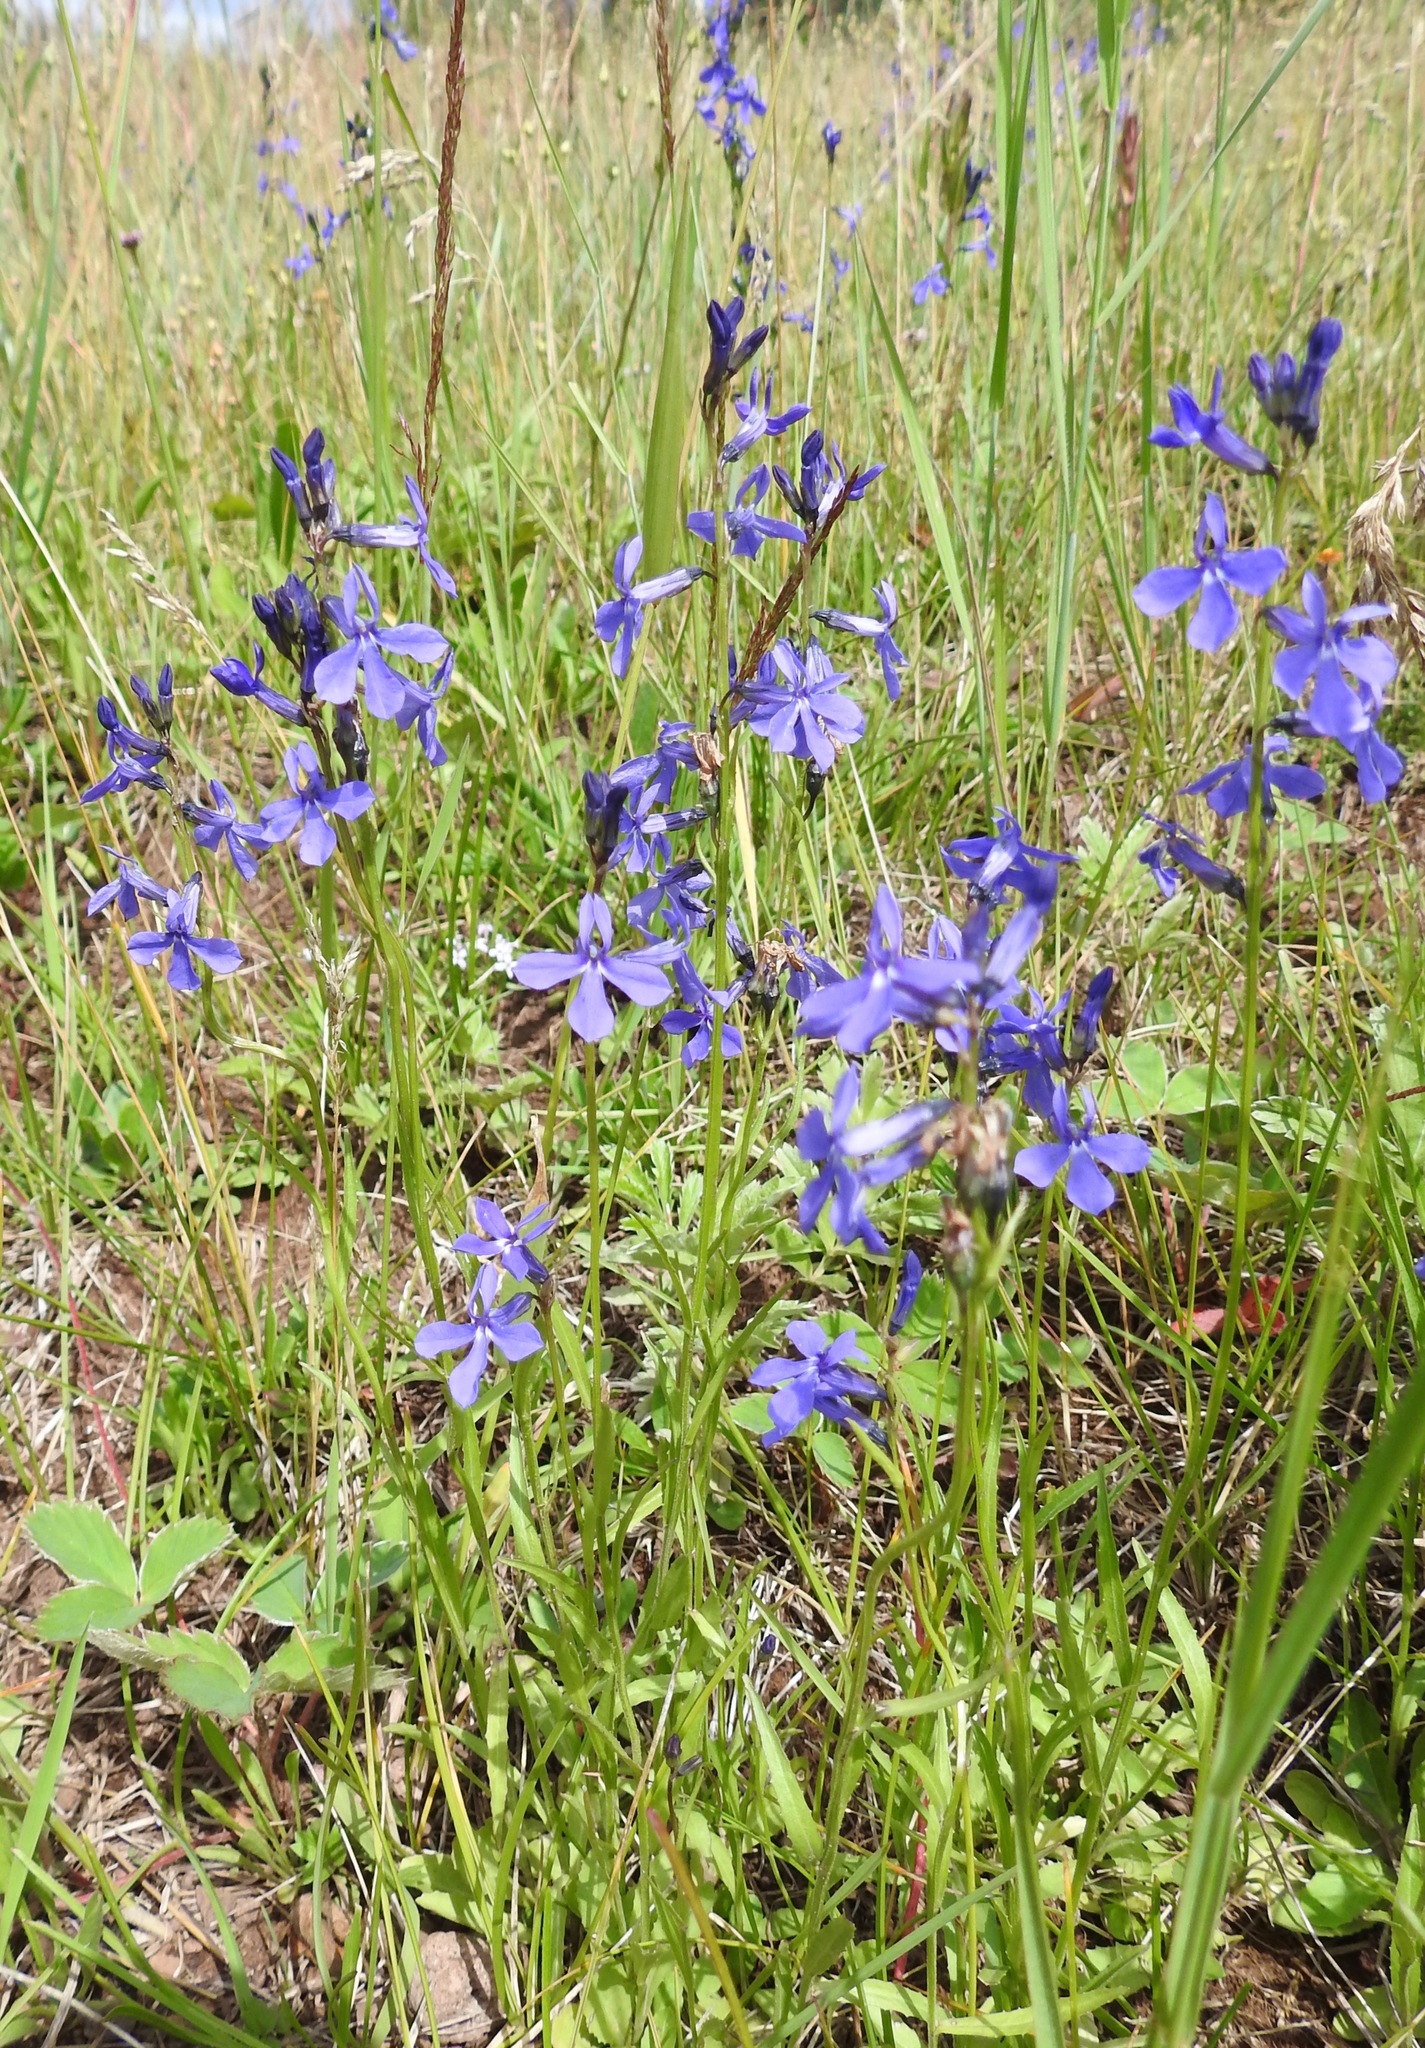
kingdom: Plantae
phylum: Tracheophyta
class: Magnoliopsida
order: Asterales
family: Campanulaceae
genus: Lobelia
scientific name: Lobelia anatina
